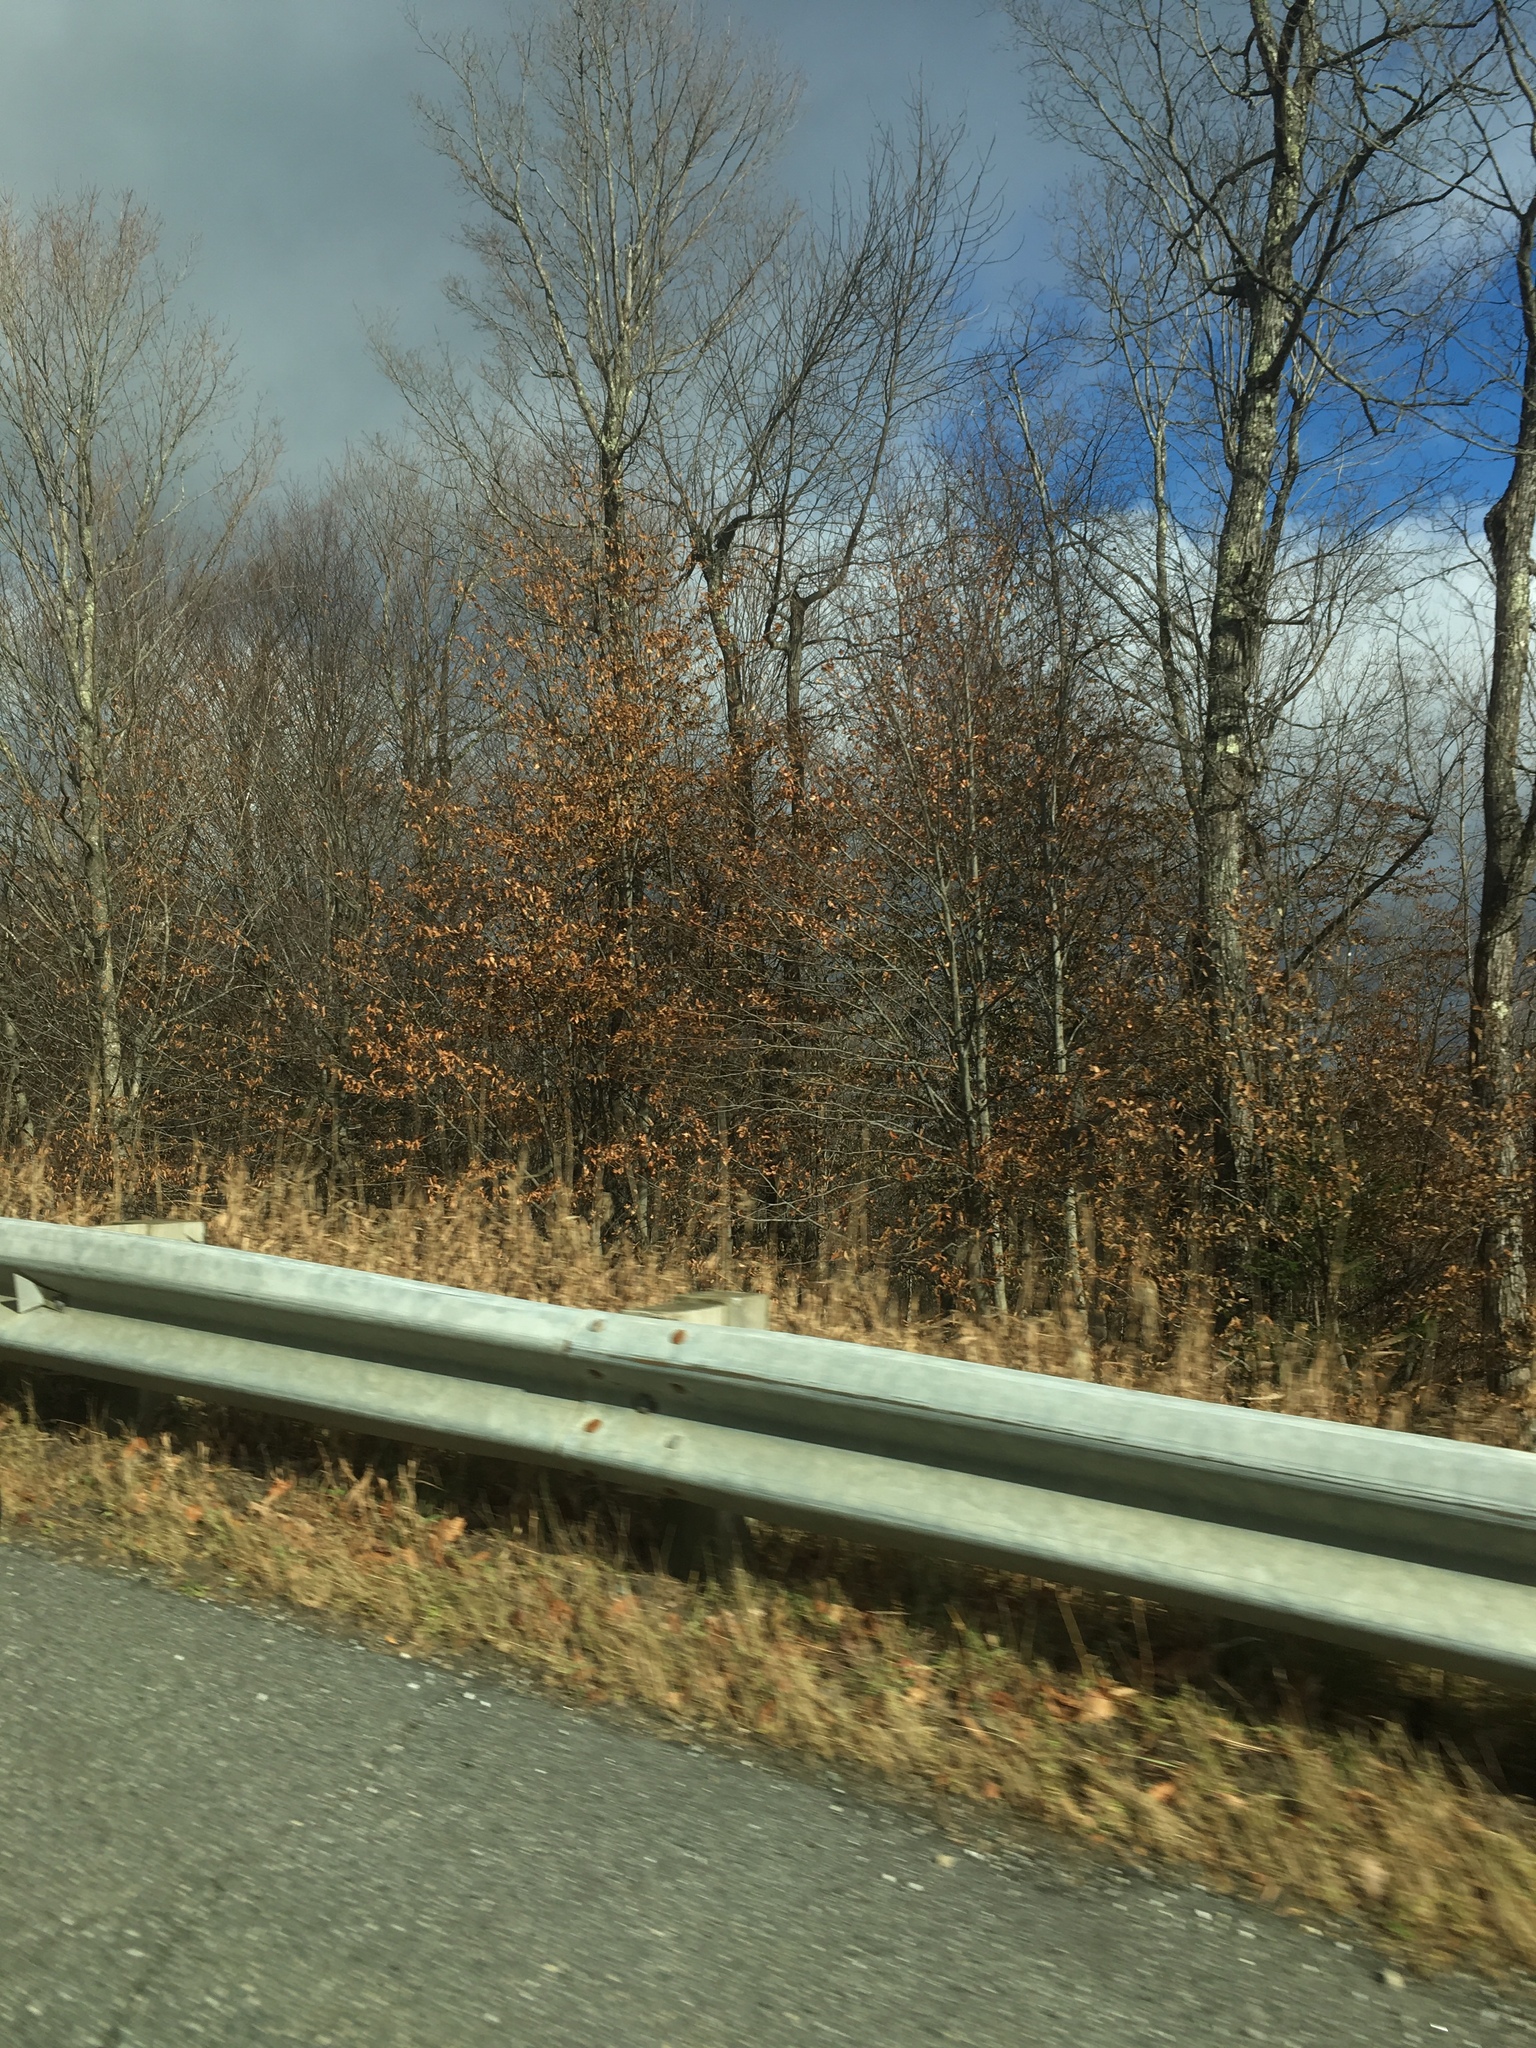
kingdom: Plantae
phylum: Tracheophyta
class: Magnoliopsida
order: Fagales
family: Fagaceae
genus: Fagus
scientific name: Fagus grandifolia
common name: American beech
